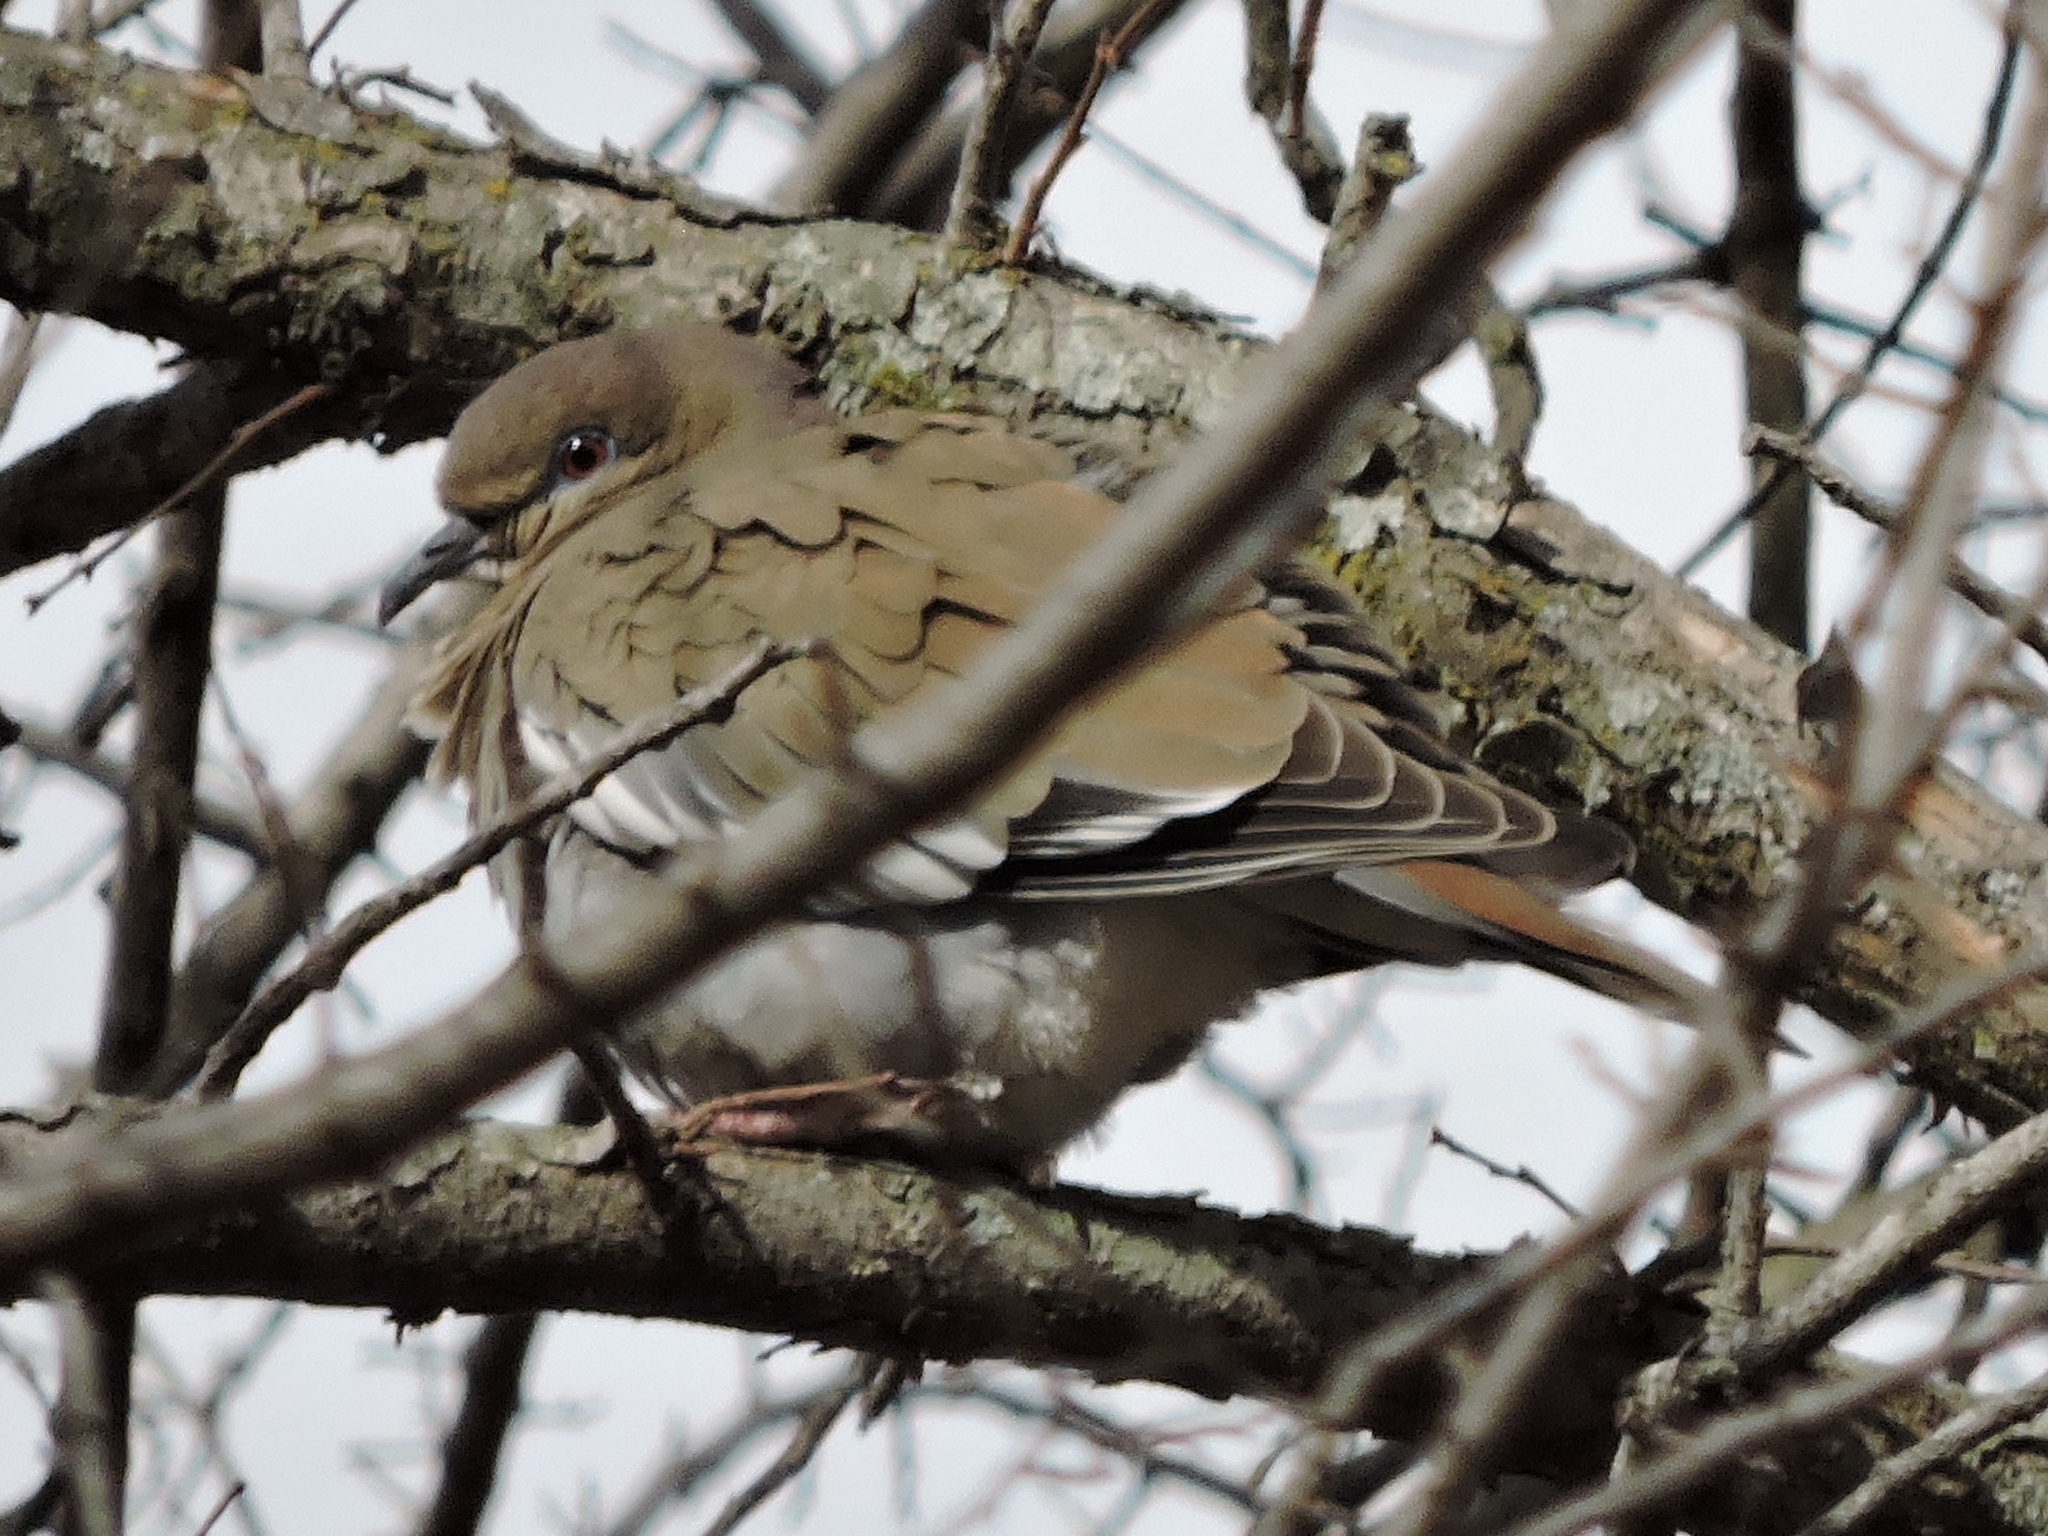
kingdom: Animalia
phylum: Chordata
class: Aves
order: Columbiformes
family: Columbidae
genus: Zenaida
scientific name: Zenaida asiatica
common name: White-winged dove
